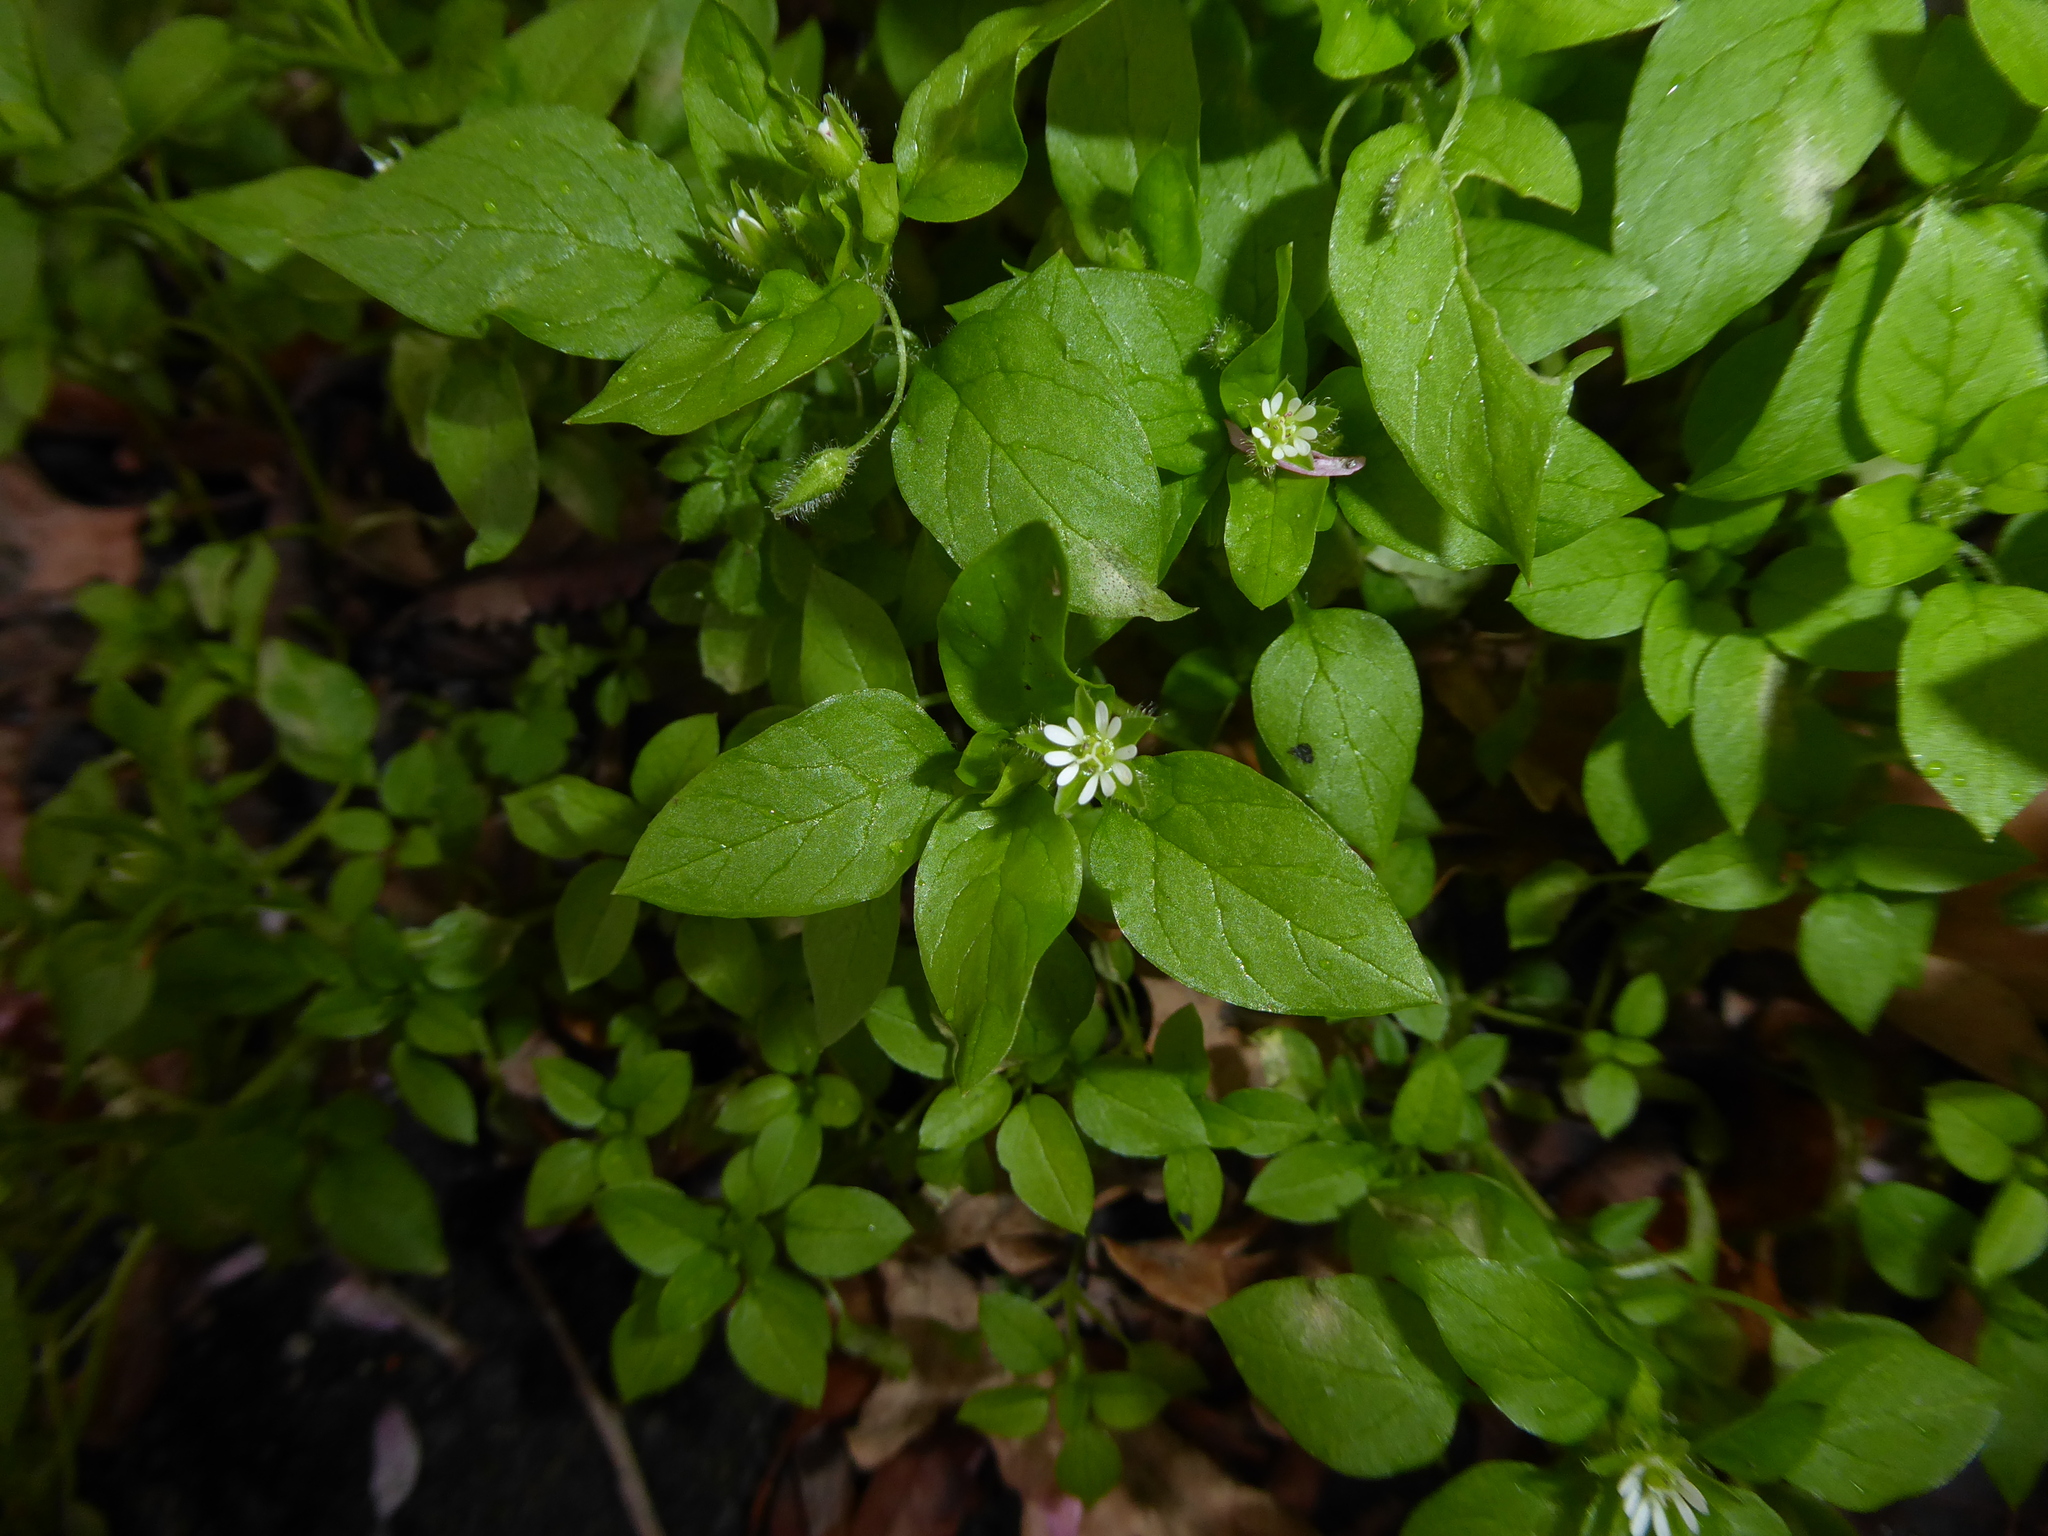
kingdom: Plantae
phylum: Tracheophyta
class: Magnoliopsida
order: Caryophyllales
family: Caryophyllaceae
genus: Stellaria
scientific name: Stellaria media
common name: Common chickweed
